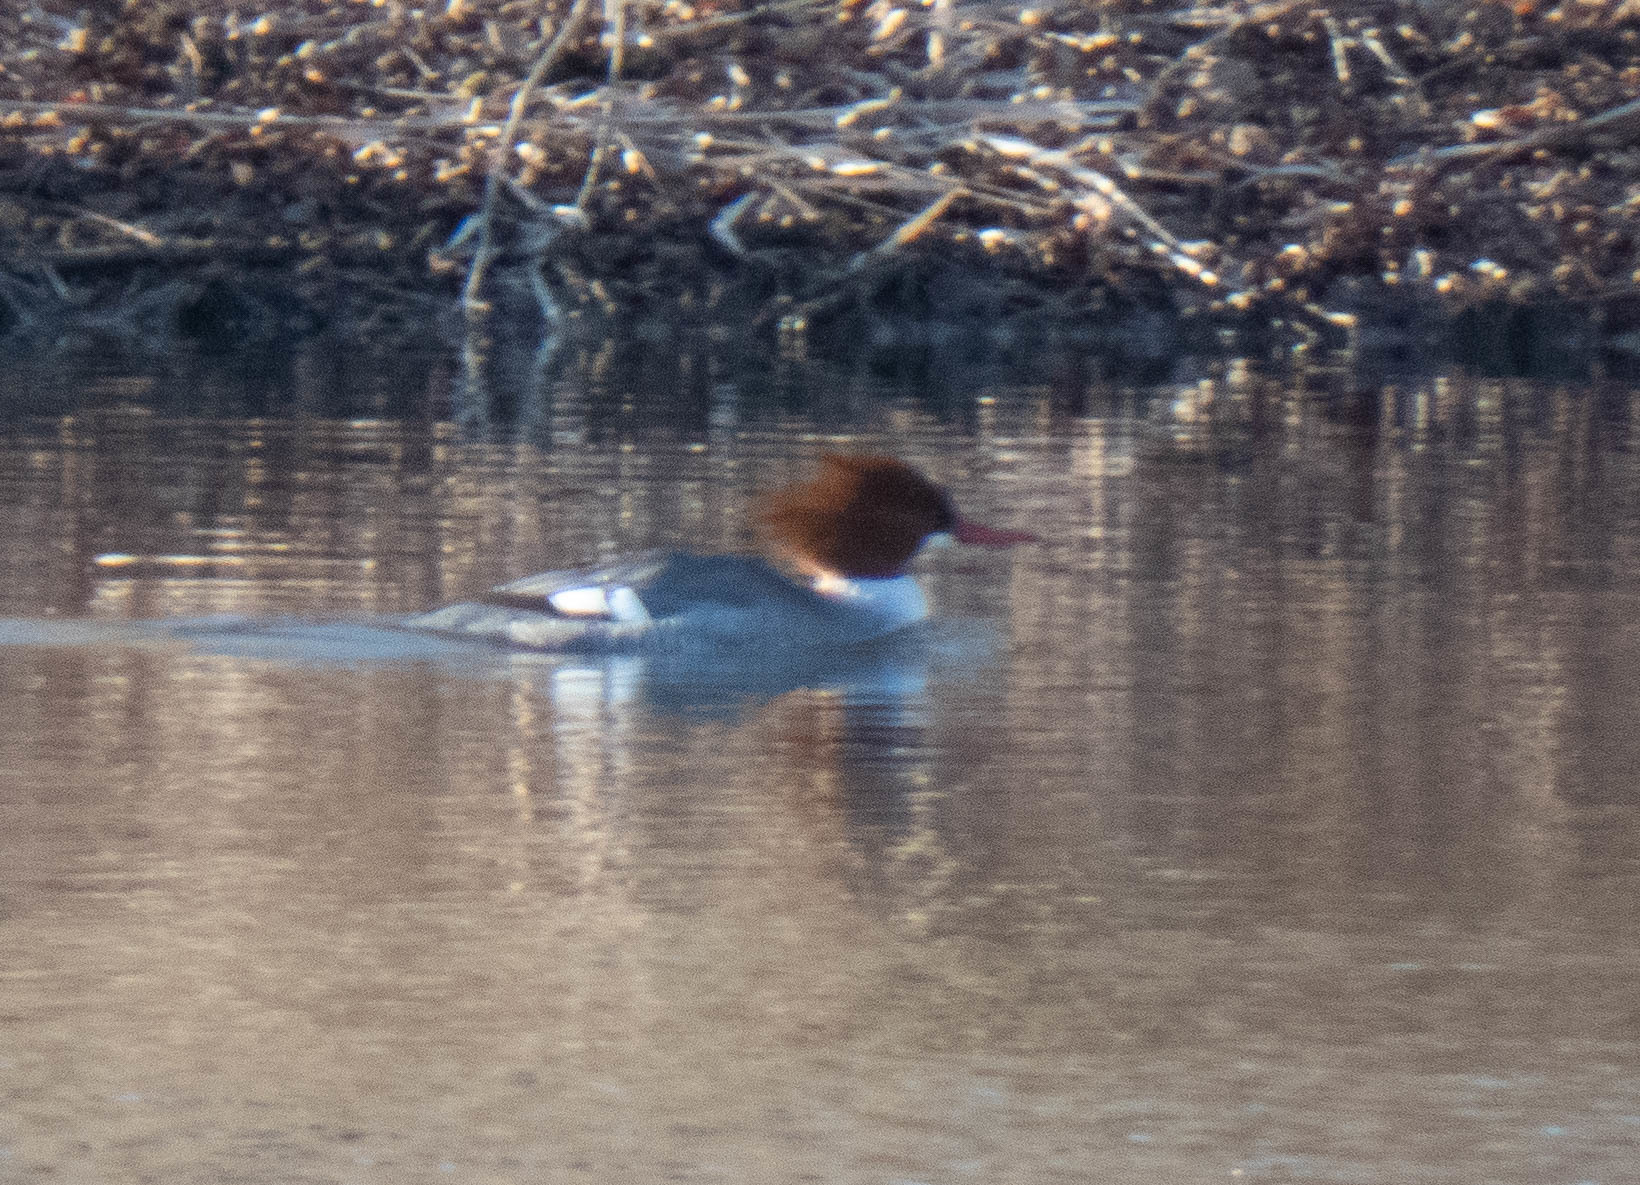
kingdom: Animalia
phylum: Chordata
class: Aves
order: Anseriformes
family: Anatidae
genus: Mergus
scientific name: Mergus merganser
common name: Common merganser
